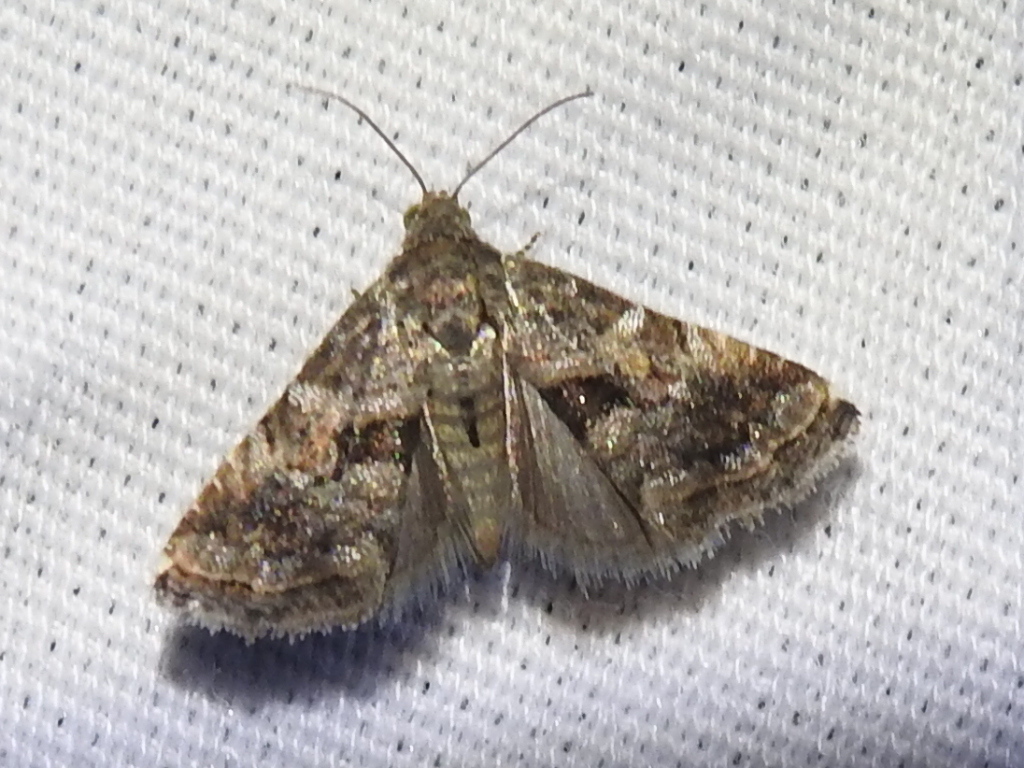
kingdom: Animalia
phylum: Arthropoda
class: Insecta
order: Lepidoptera
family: Noctuidae
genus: Tripudia
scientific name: Tripudia quadrifera
